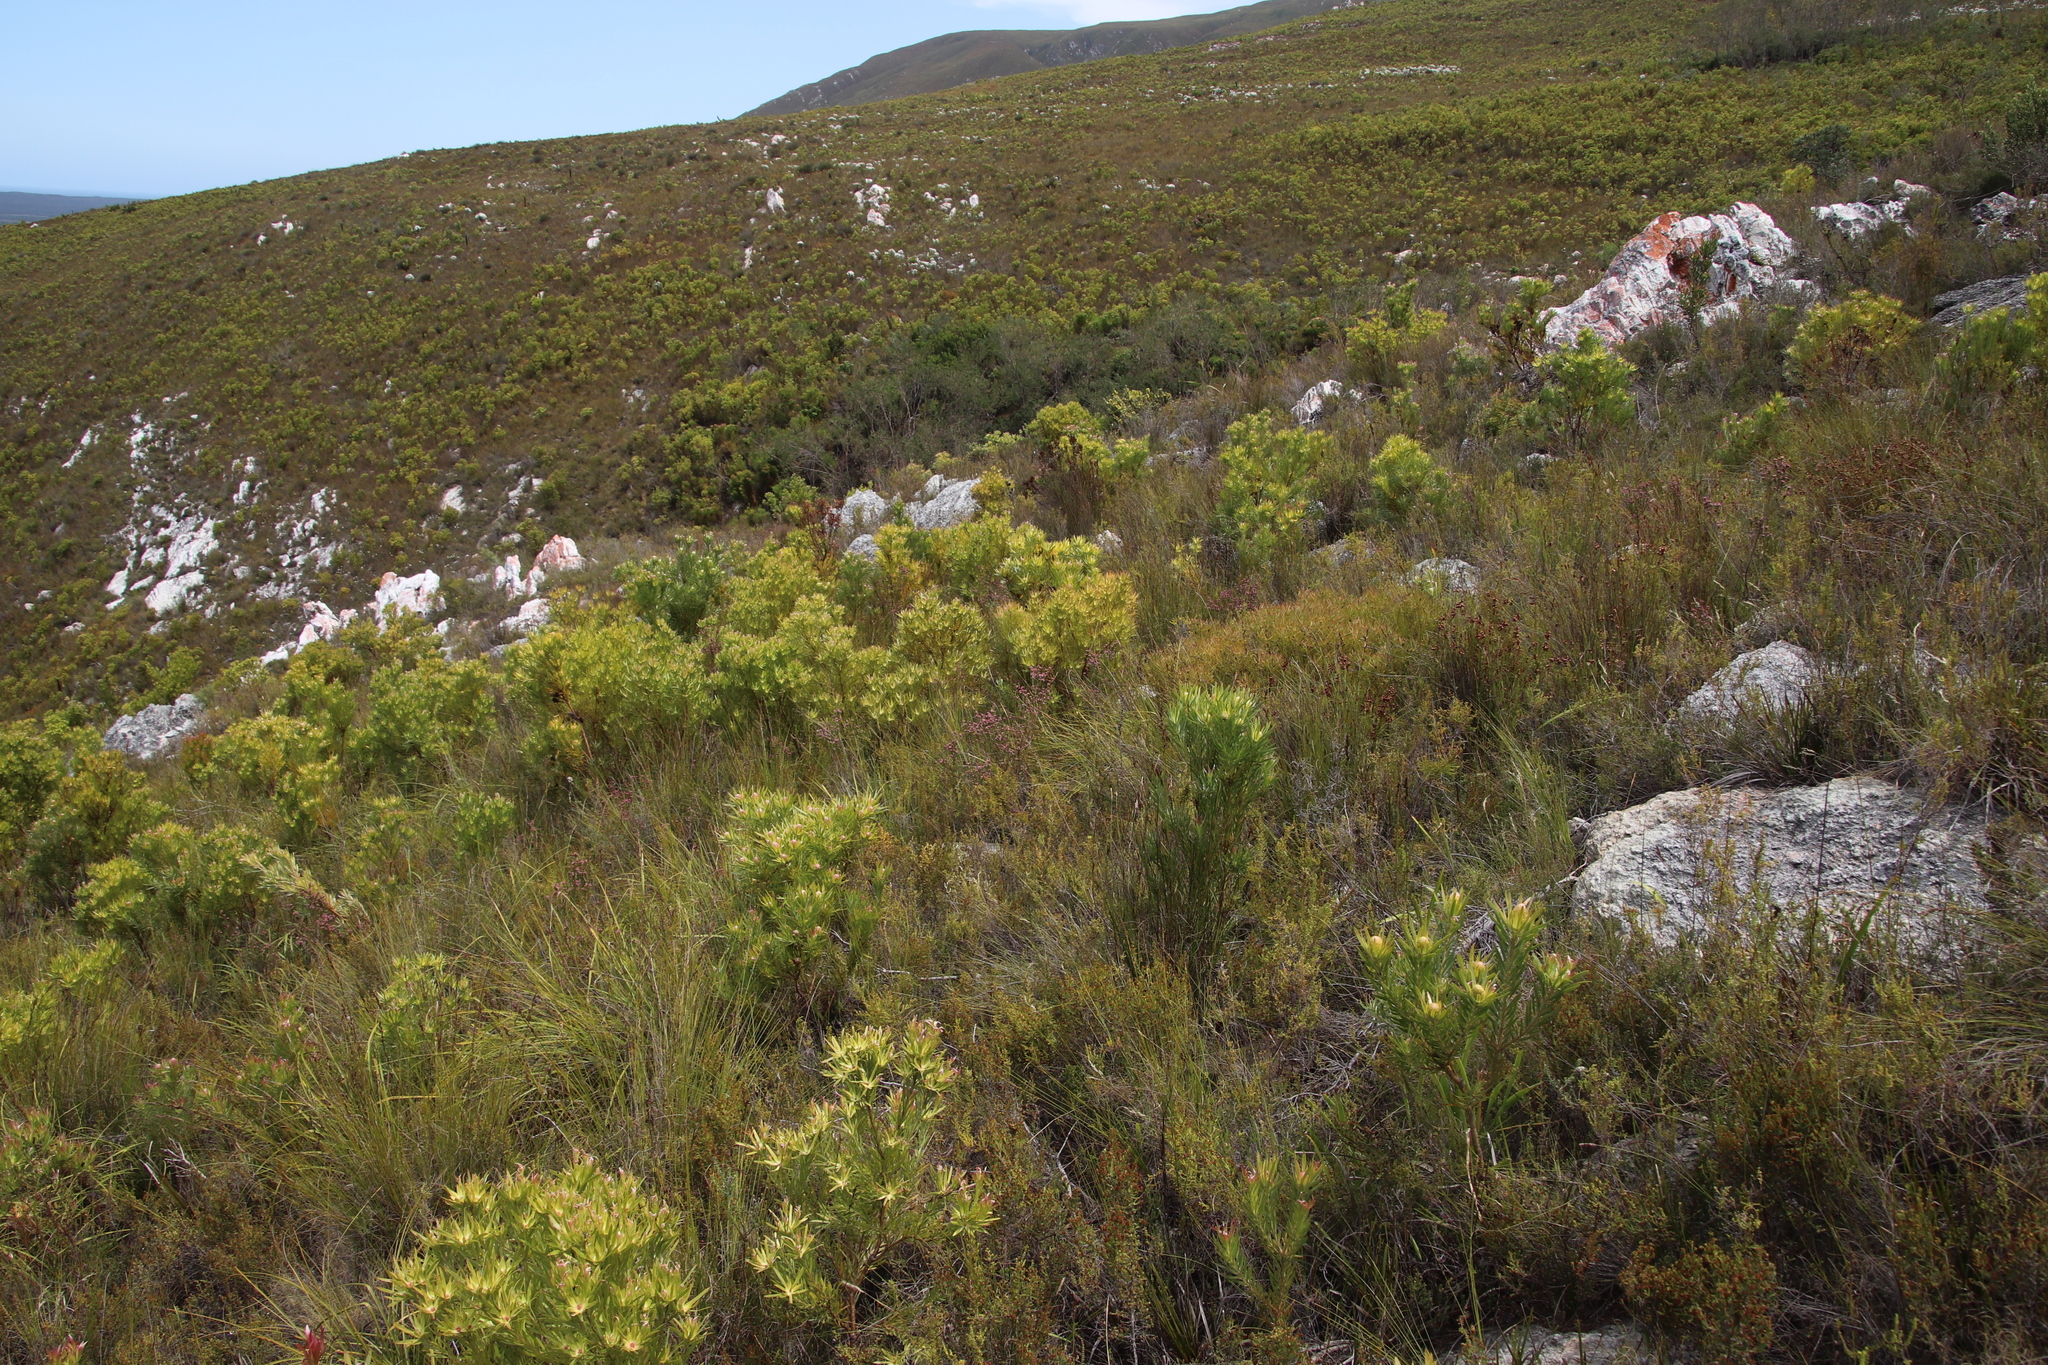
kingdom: Plantae
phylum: Tracheophyta
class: Magnoliopsida
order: Proteales
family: Proteaceae
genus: Leucadendron
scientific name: Leucadendron xanthoconus
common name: Sickle-leaf conebush
